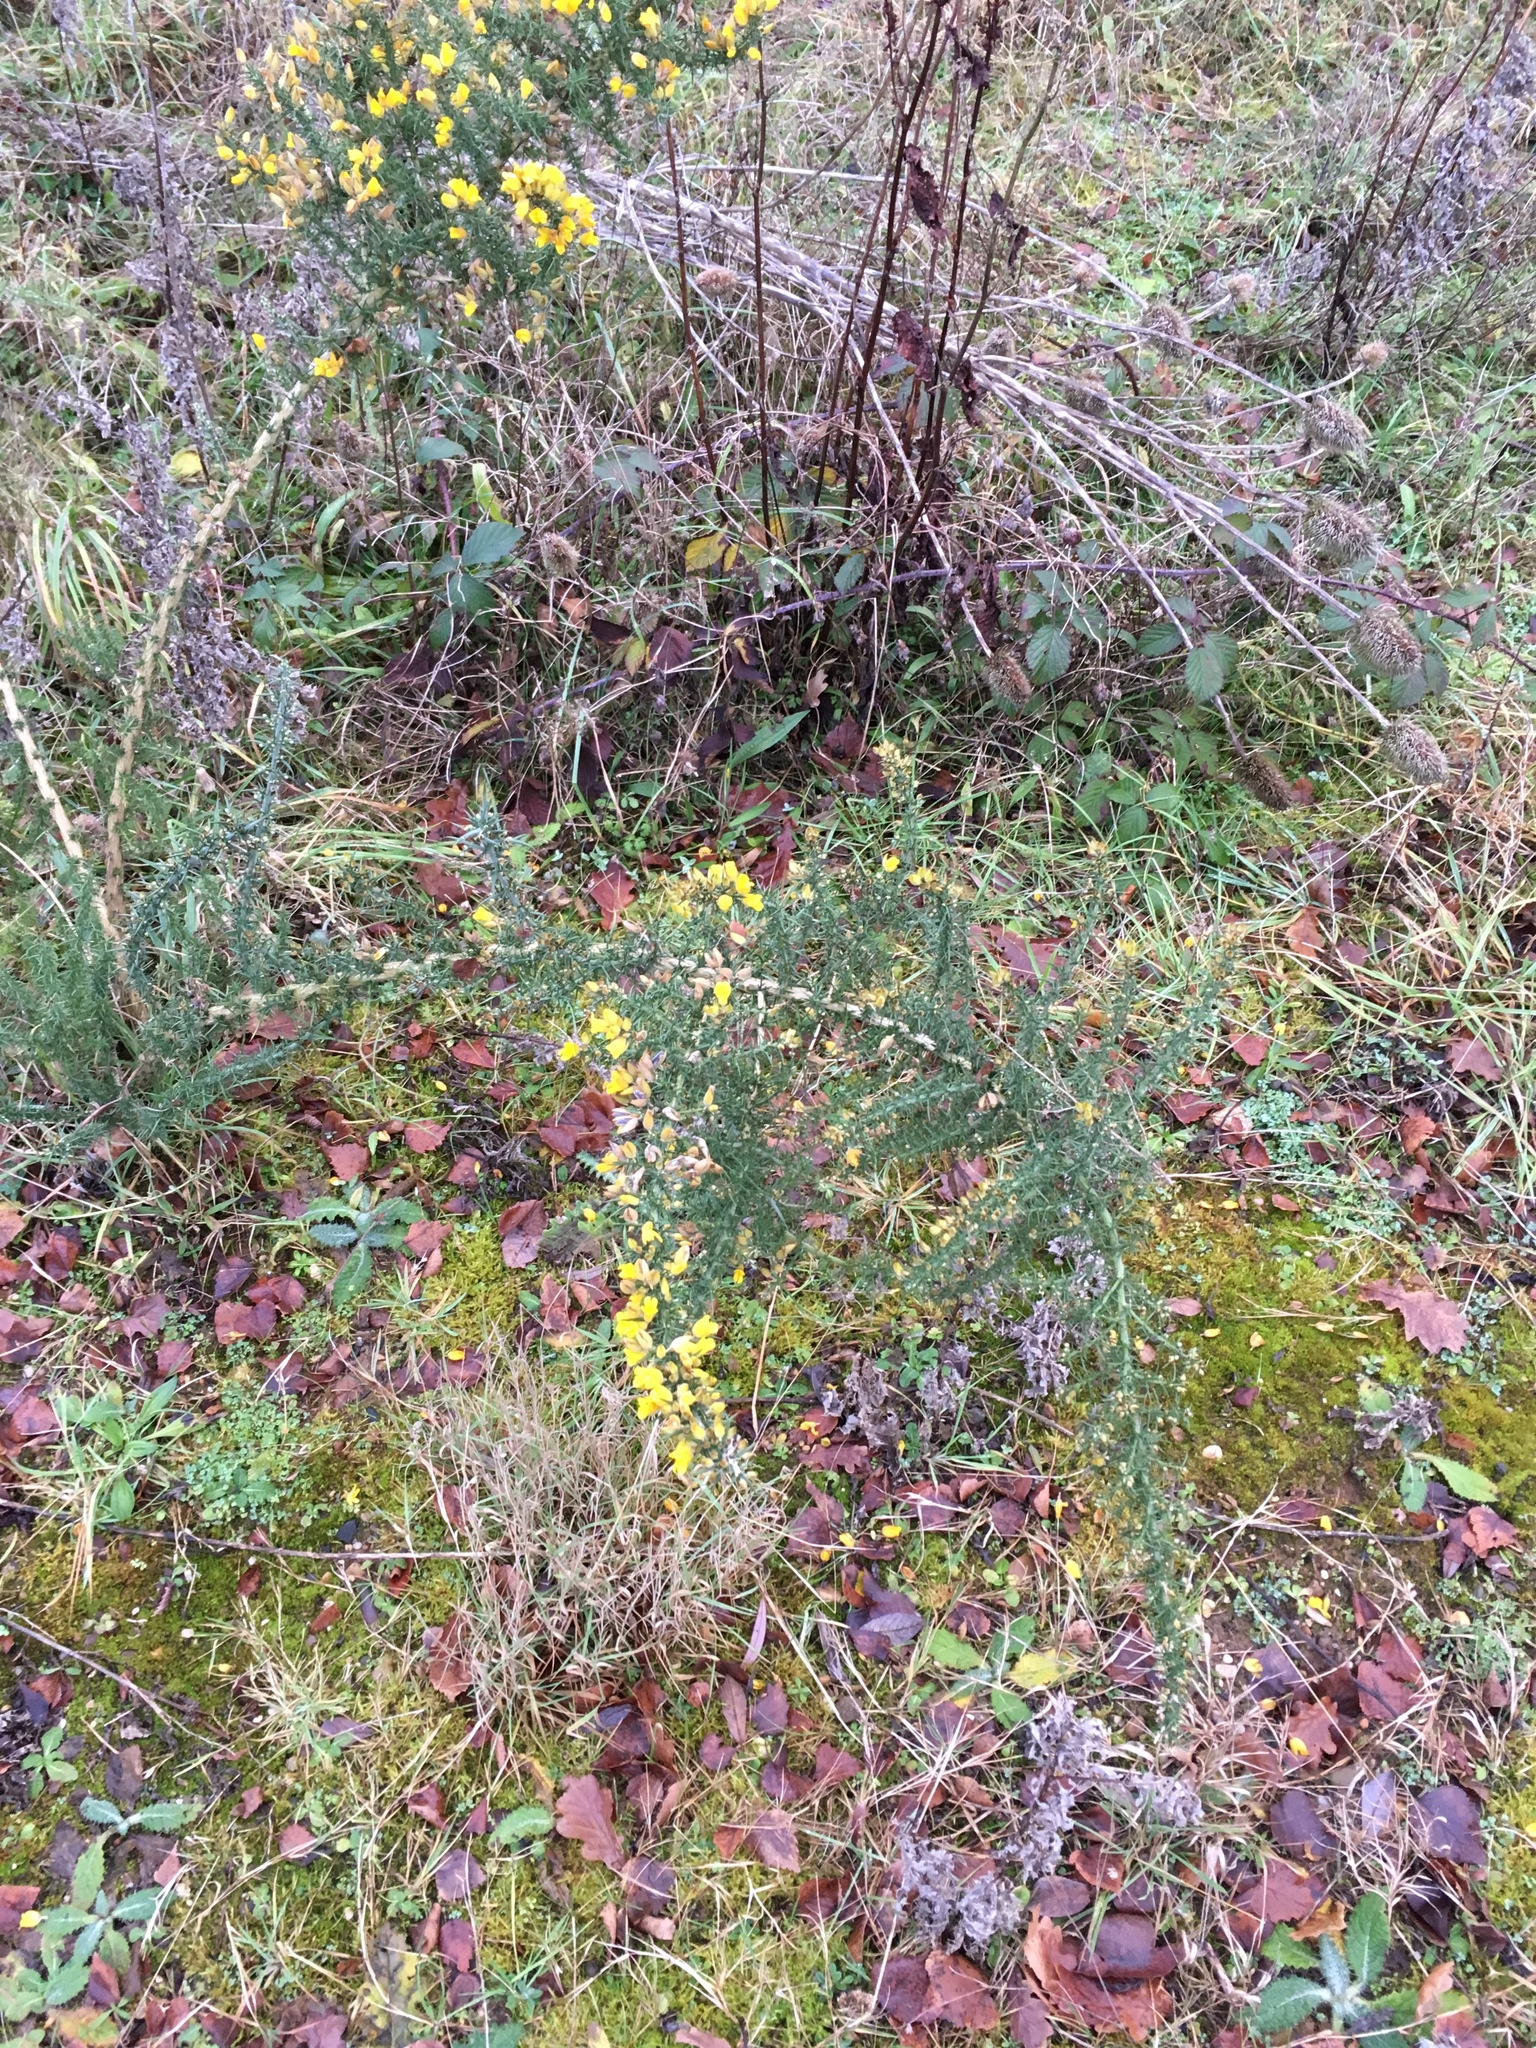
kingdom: Plantae
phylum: Tracheophyta
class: Magnoliopsida
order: Fabales
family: Fabaceae
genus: Ulex
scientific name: Ulex europaeus
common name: Common gorse
